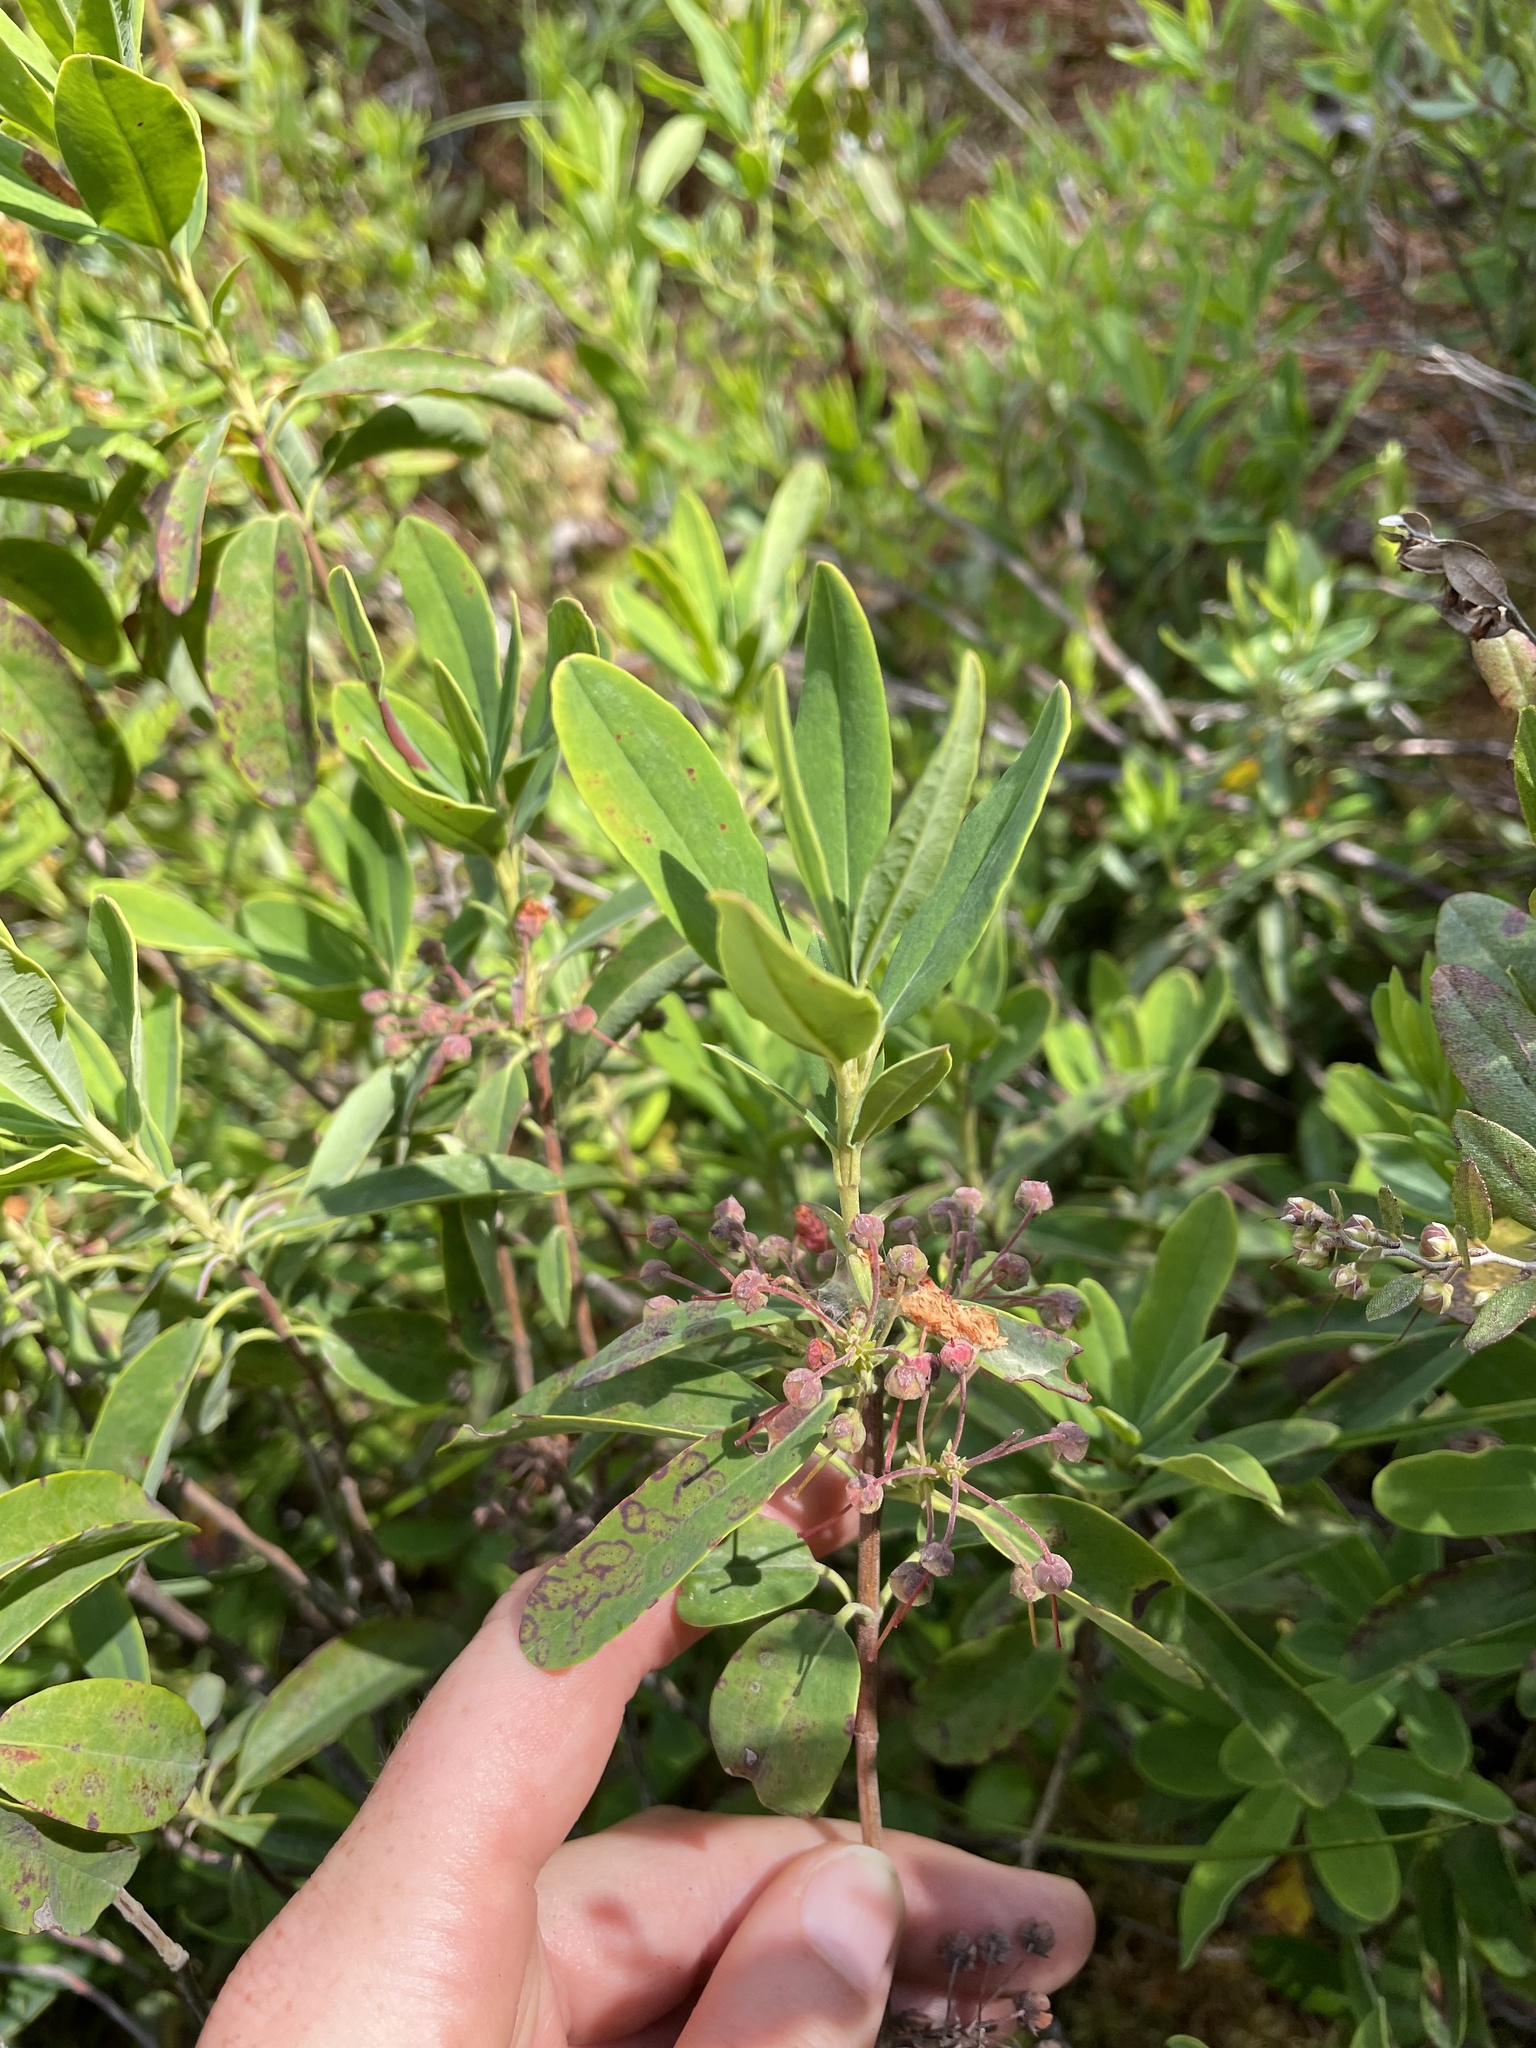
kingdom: Plantae
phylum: Tracheophyta
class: Magnoliopsida
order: Ericales
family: Ericaceae
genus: Kalmia
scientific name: Kalmia angustifolia
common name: Sheep-laurel
